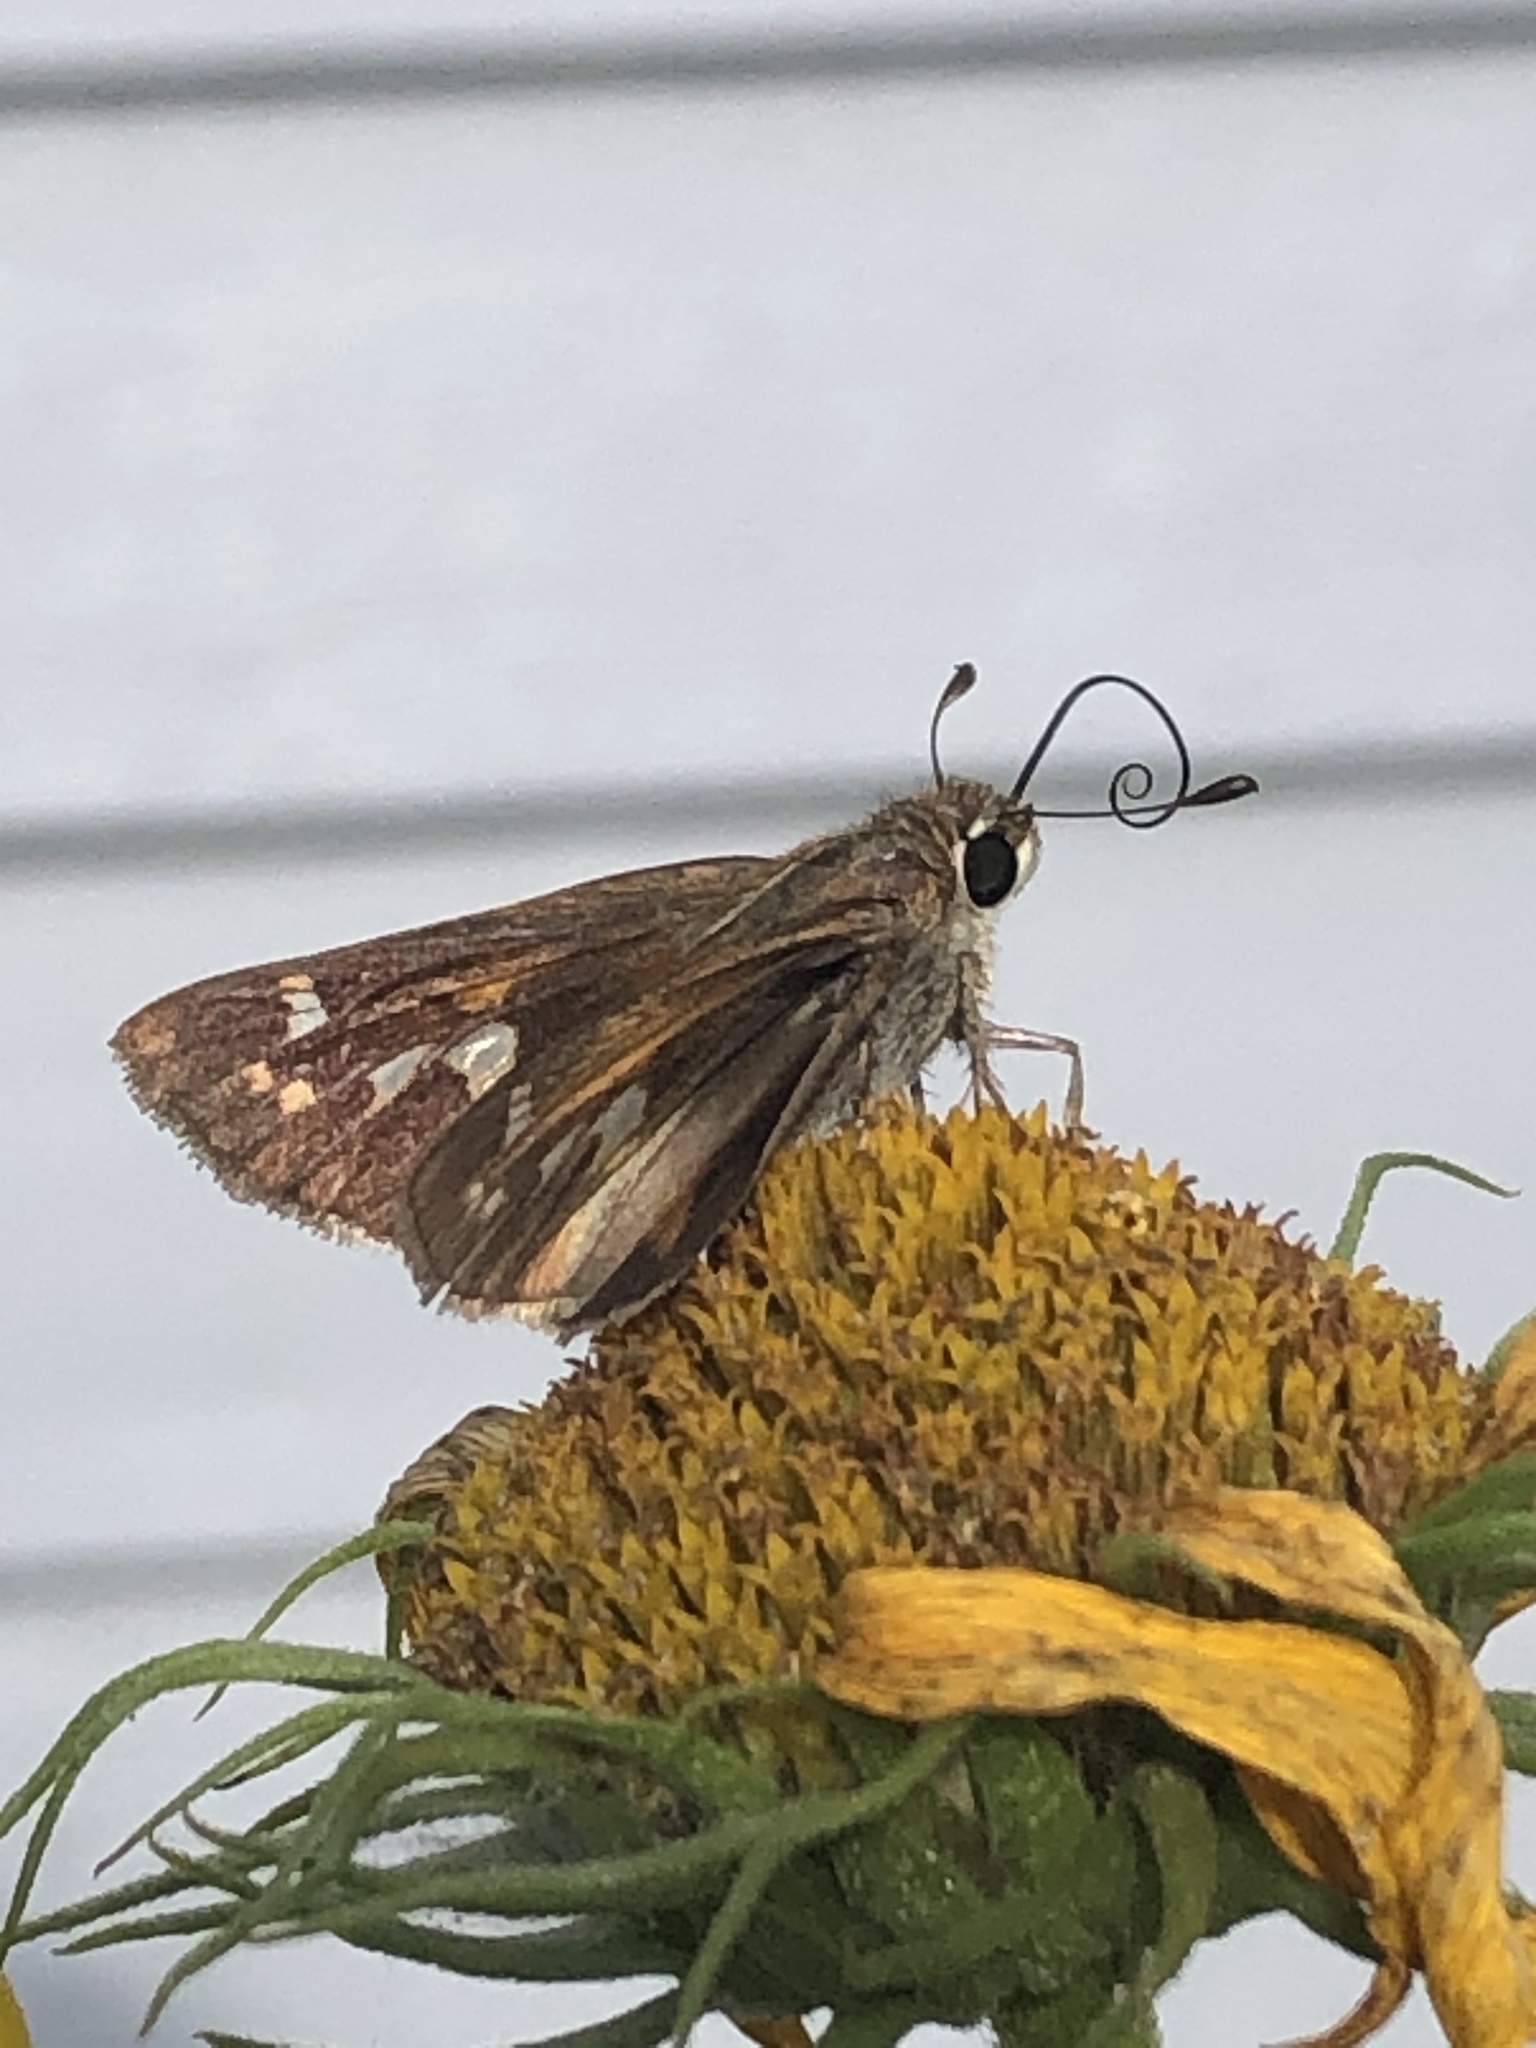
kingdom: Animalia
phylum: Arthropoda
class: Insecta
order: Lepidoptera
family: Hesperiidae
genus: Atalopedes
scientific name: Atalopedes
